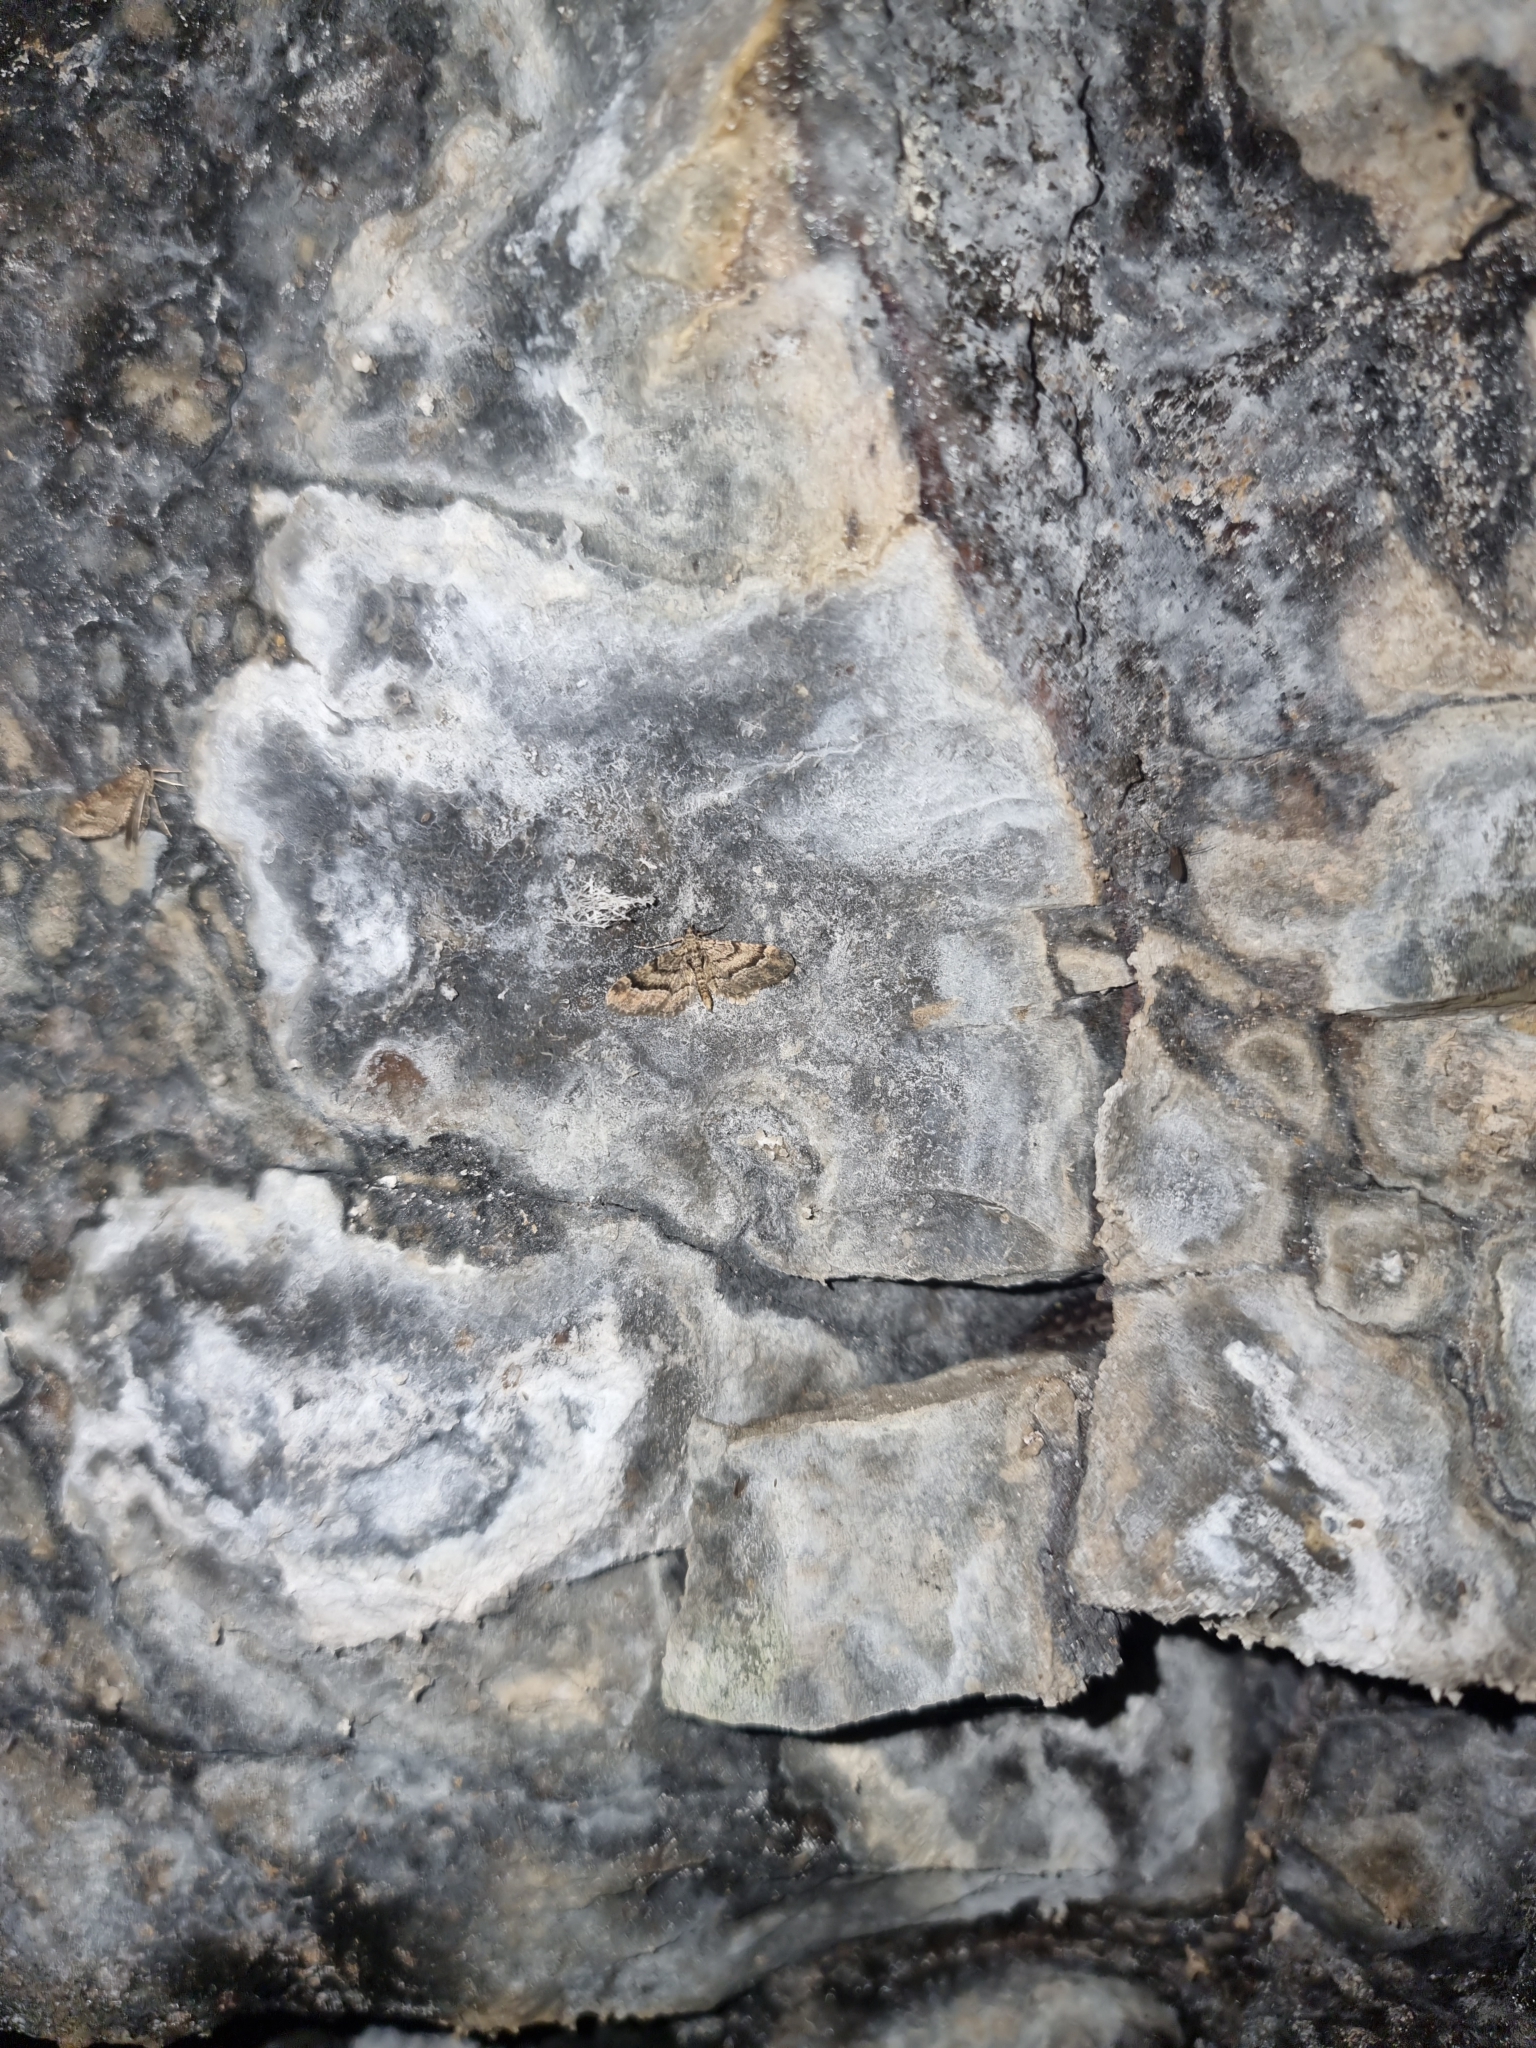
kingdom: Animalia
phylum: Arthropoda
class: Insecta
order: Lepidoptera
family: Geometridae
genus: Gymnoscelis
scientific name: Gymnoscelis insulariata
